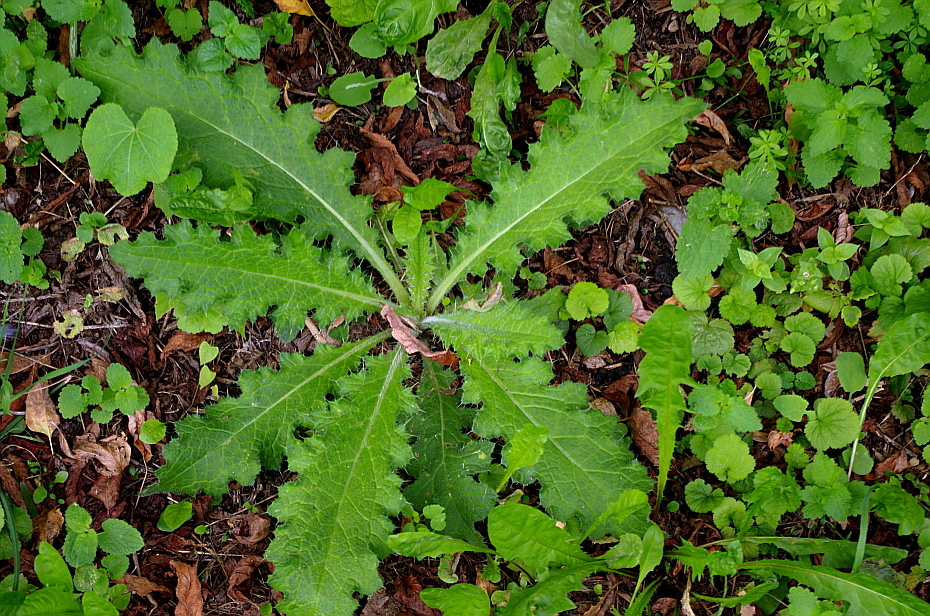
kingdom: Plantae
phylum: Tracheophyta
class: Magnoliopsida
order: Asterales
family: Asteraceae
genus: Cirsium
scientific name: Cirsium vulgare
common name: Bull thistle
